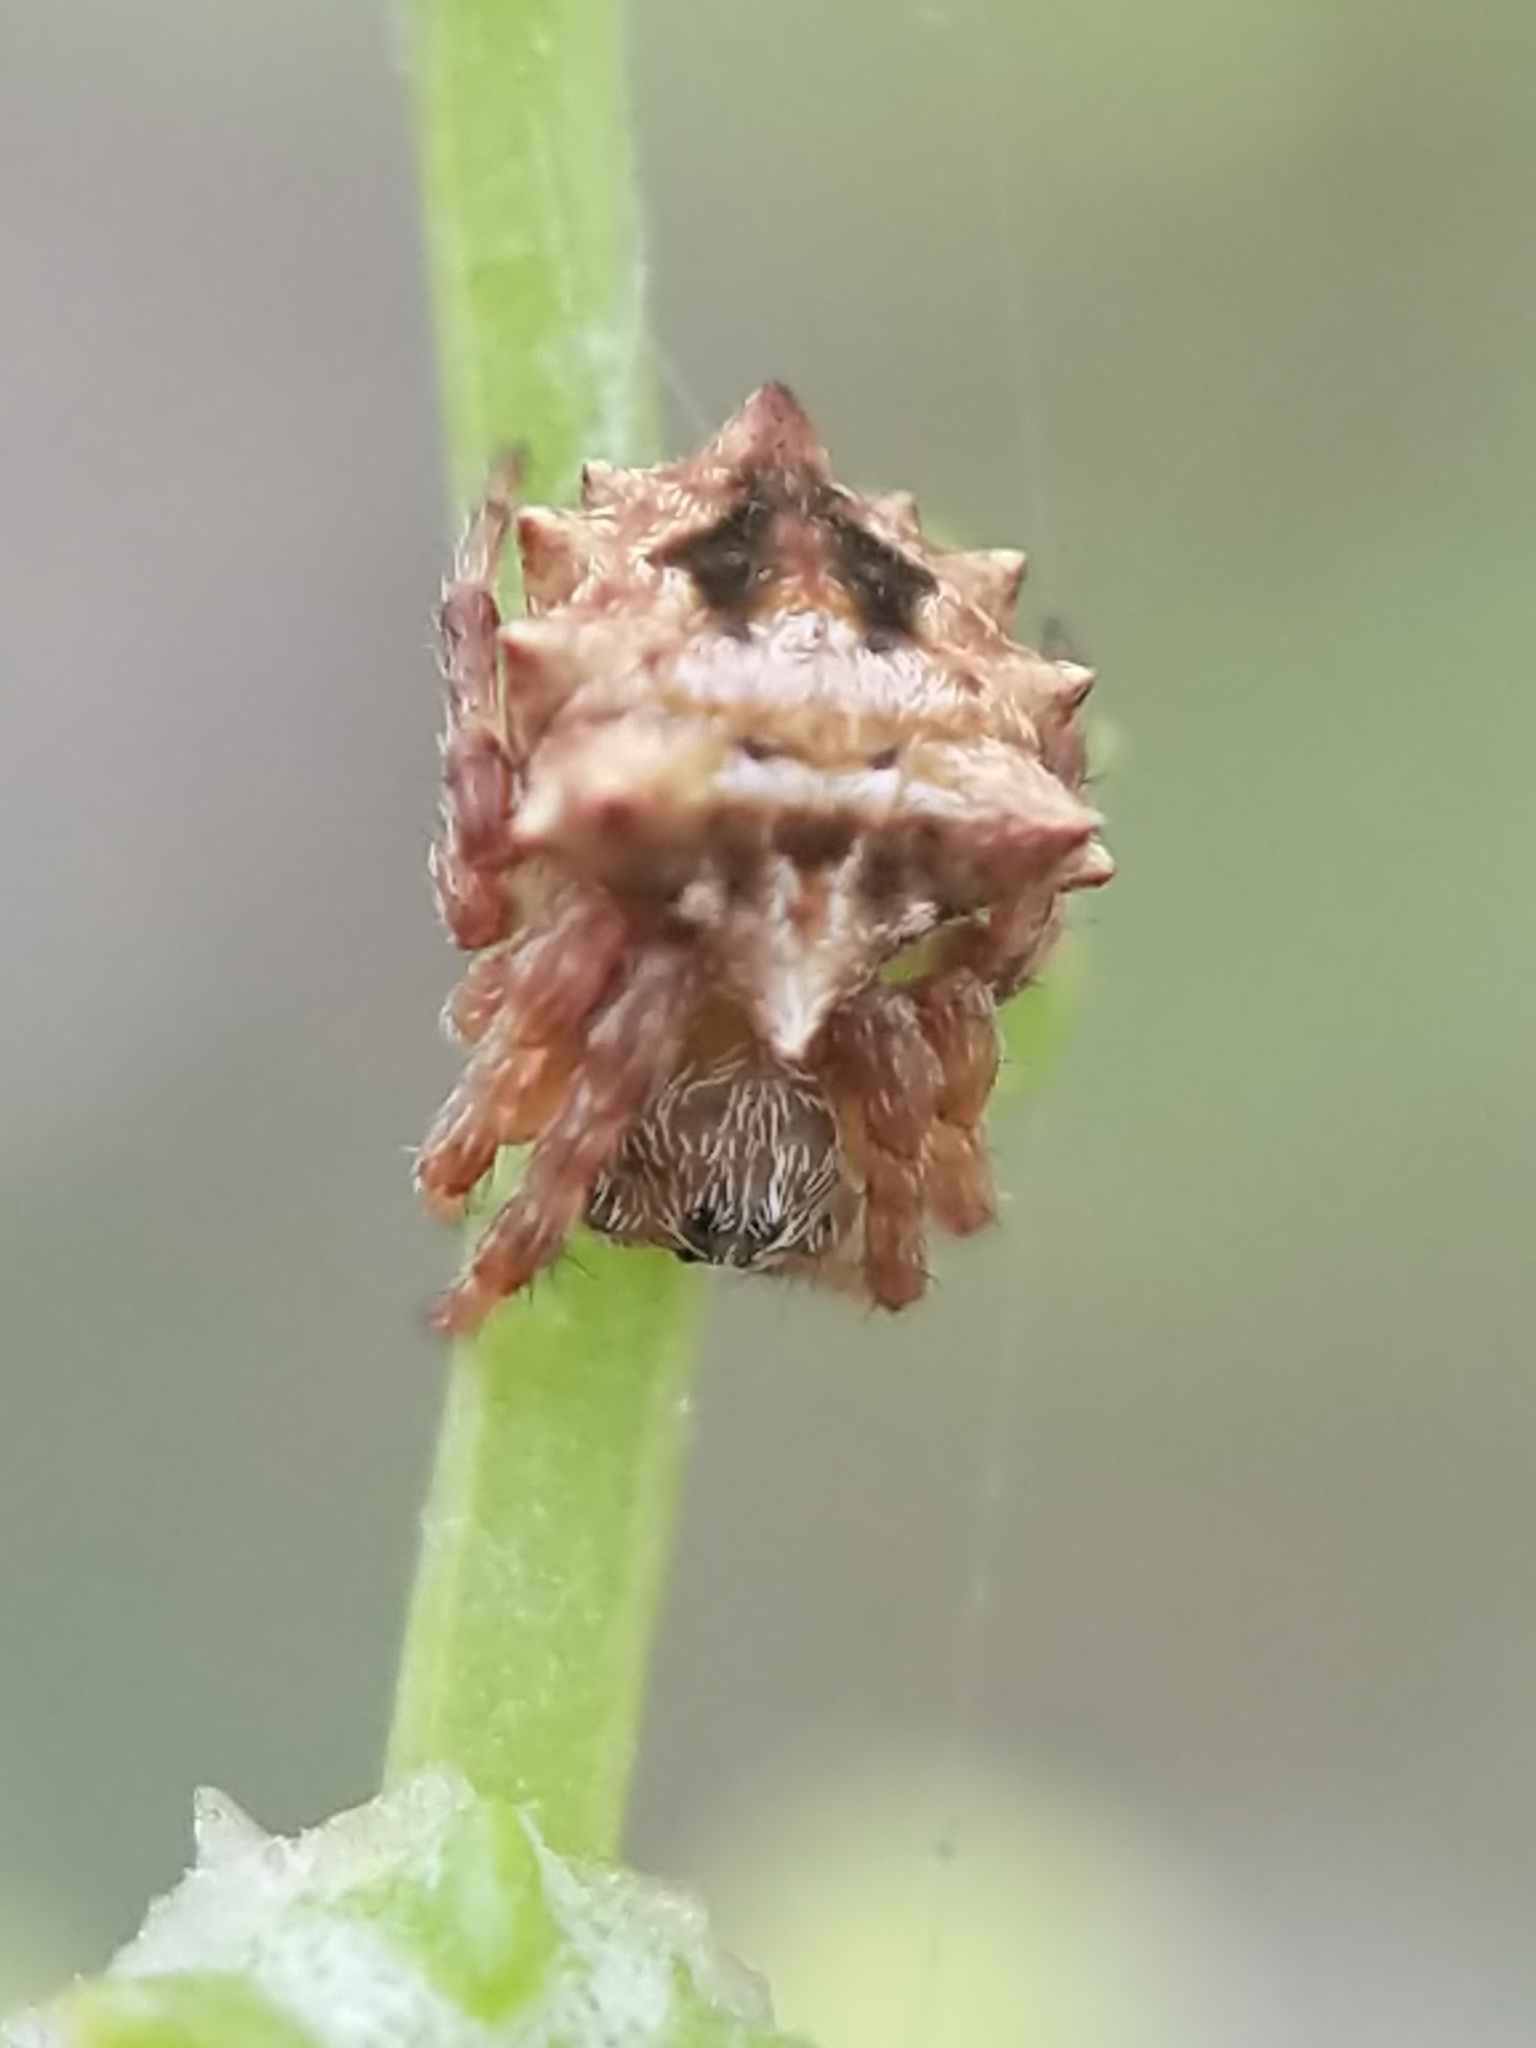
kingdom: Animalia
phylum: Arthropoda
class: Arachnida
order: Araneae
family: Araneidae
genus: Acanthepeira
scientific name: Acanthepeira stellata
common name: Starbellied orbweaver
